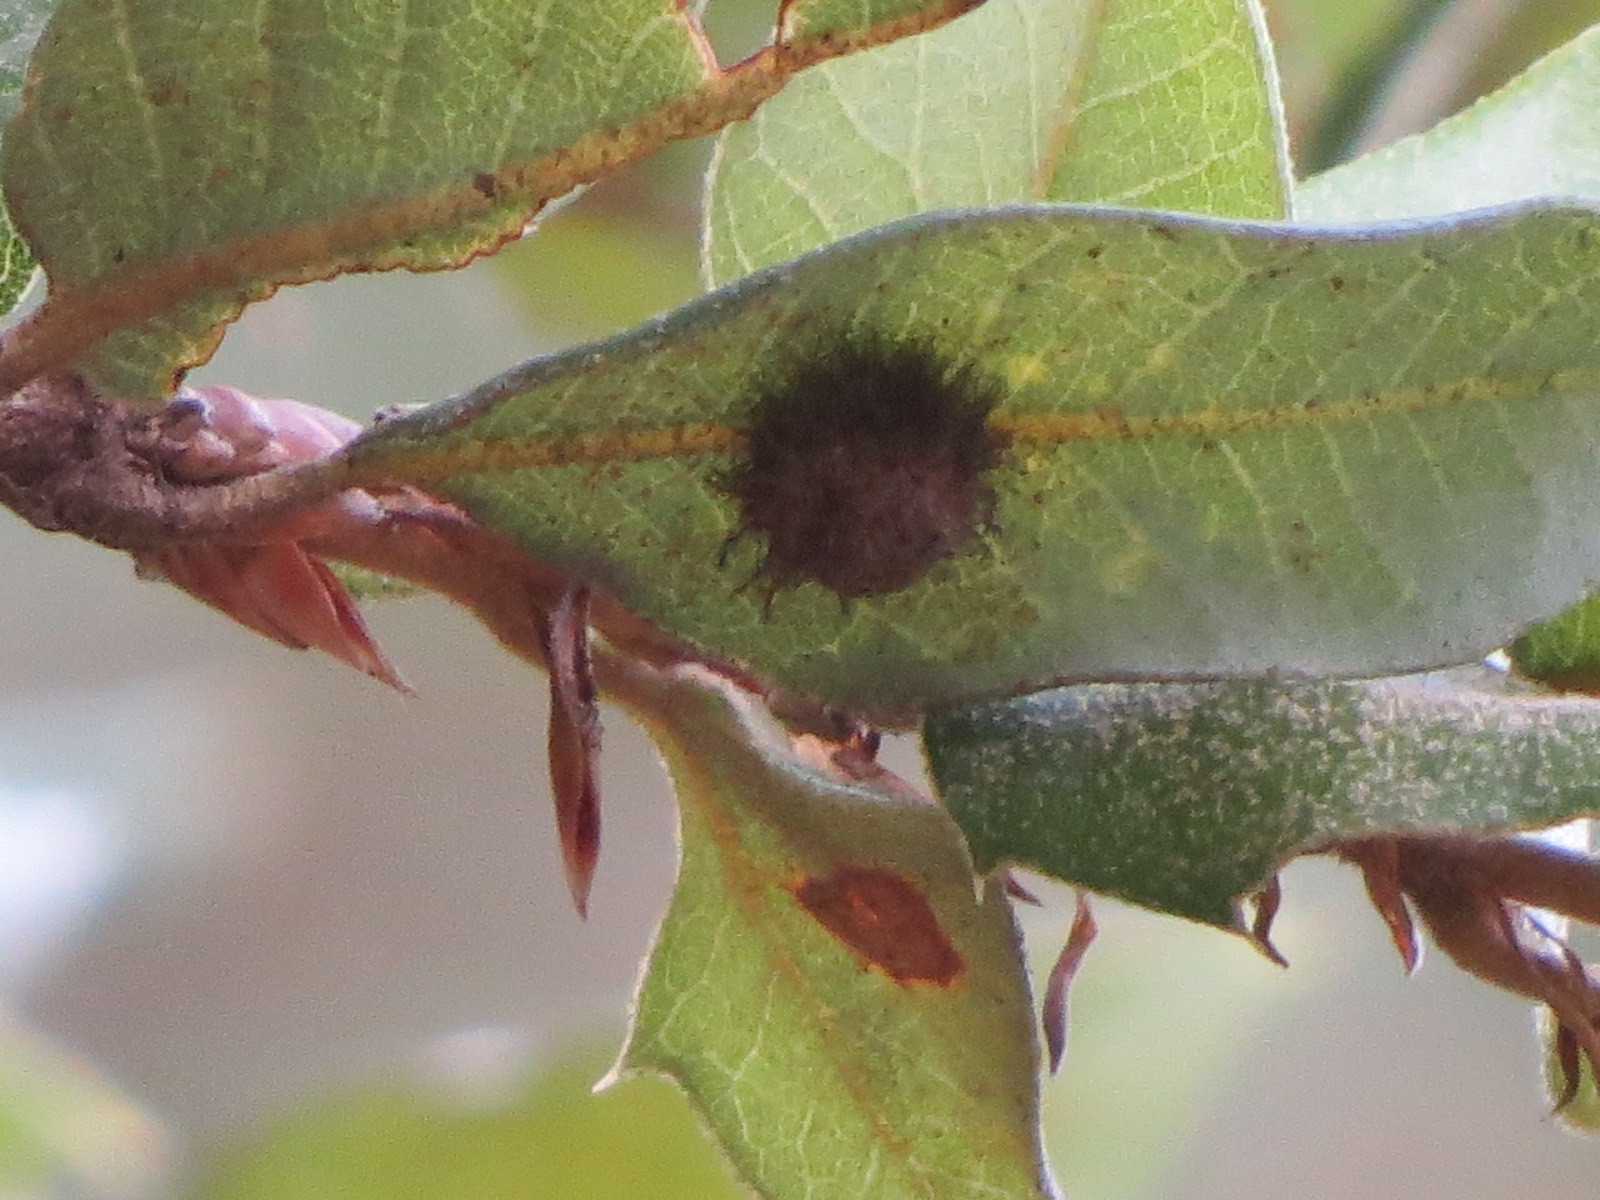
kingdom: Animalia
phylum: Arthropoda
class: Insecta
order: Hymenoptera
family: Cynipidae
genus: Disholandricus
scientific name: Disholandricus
